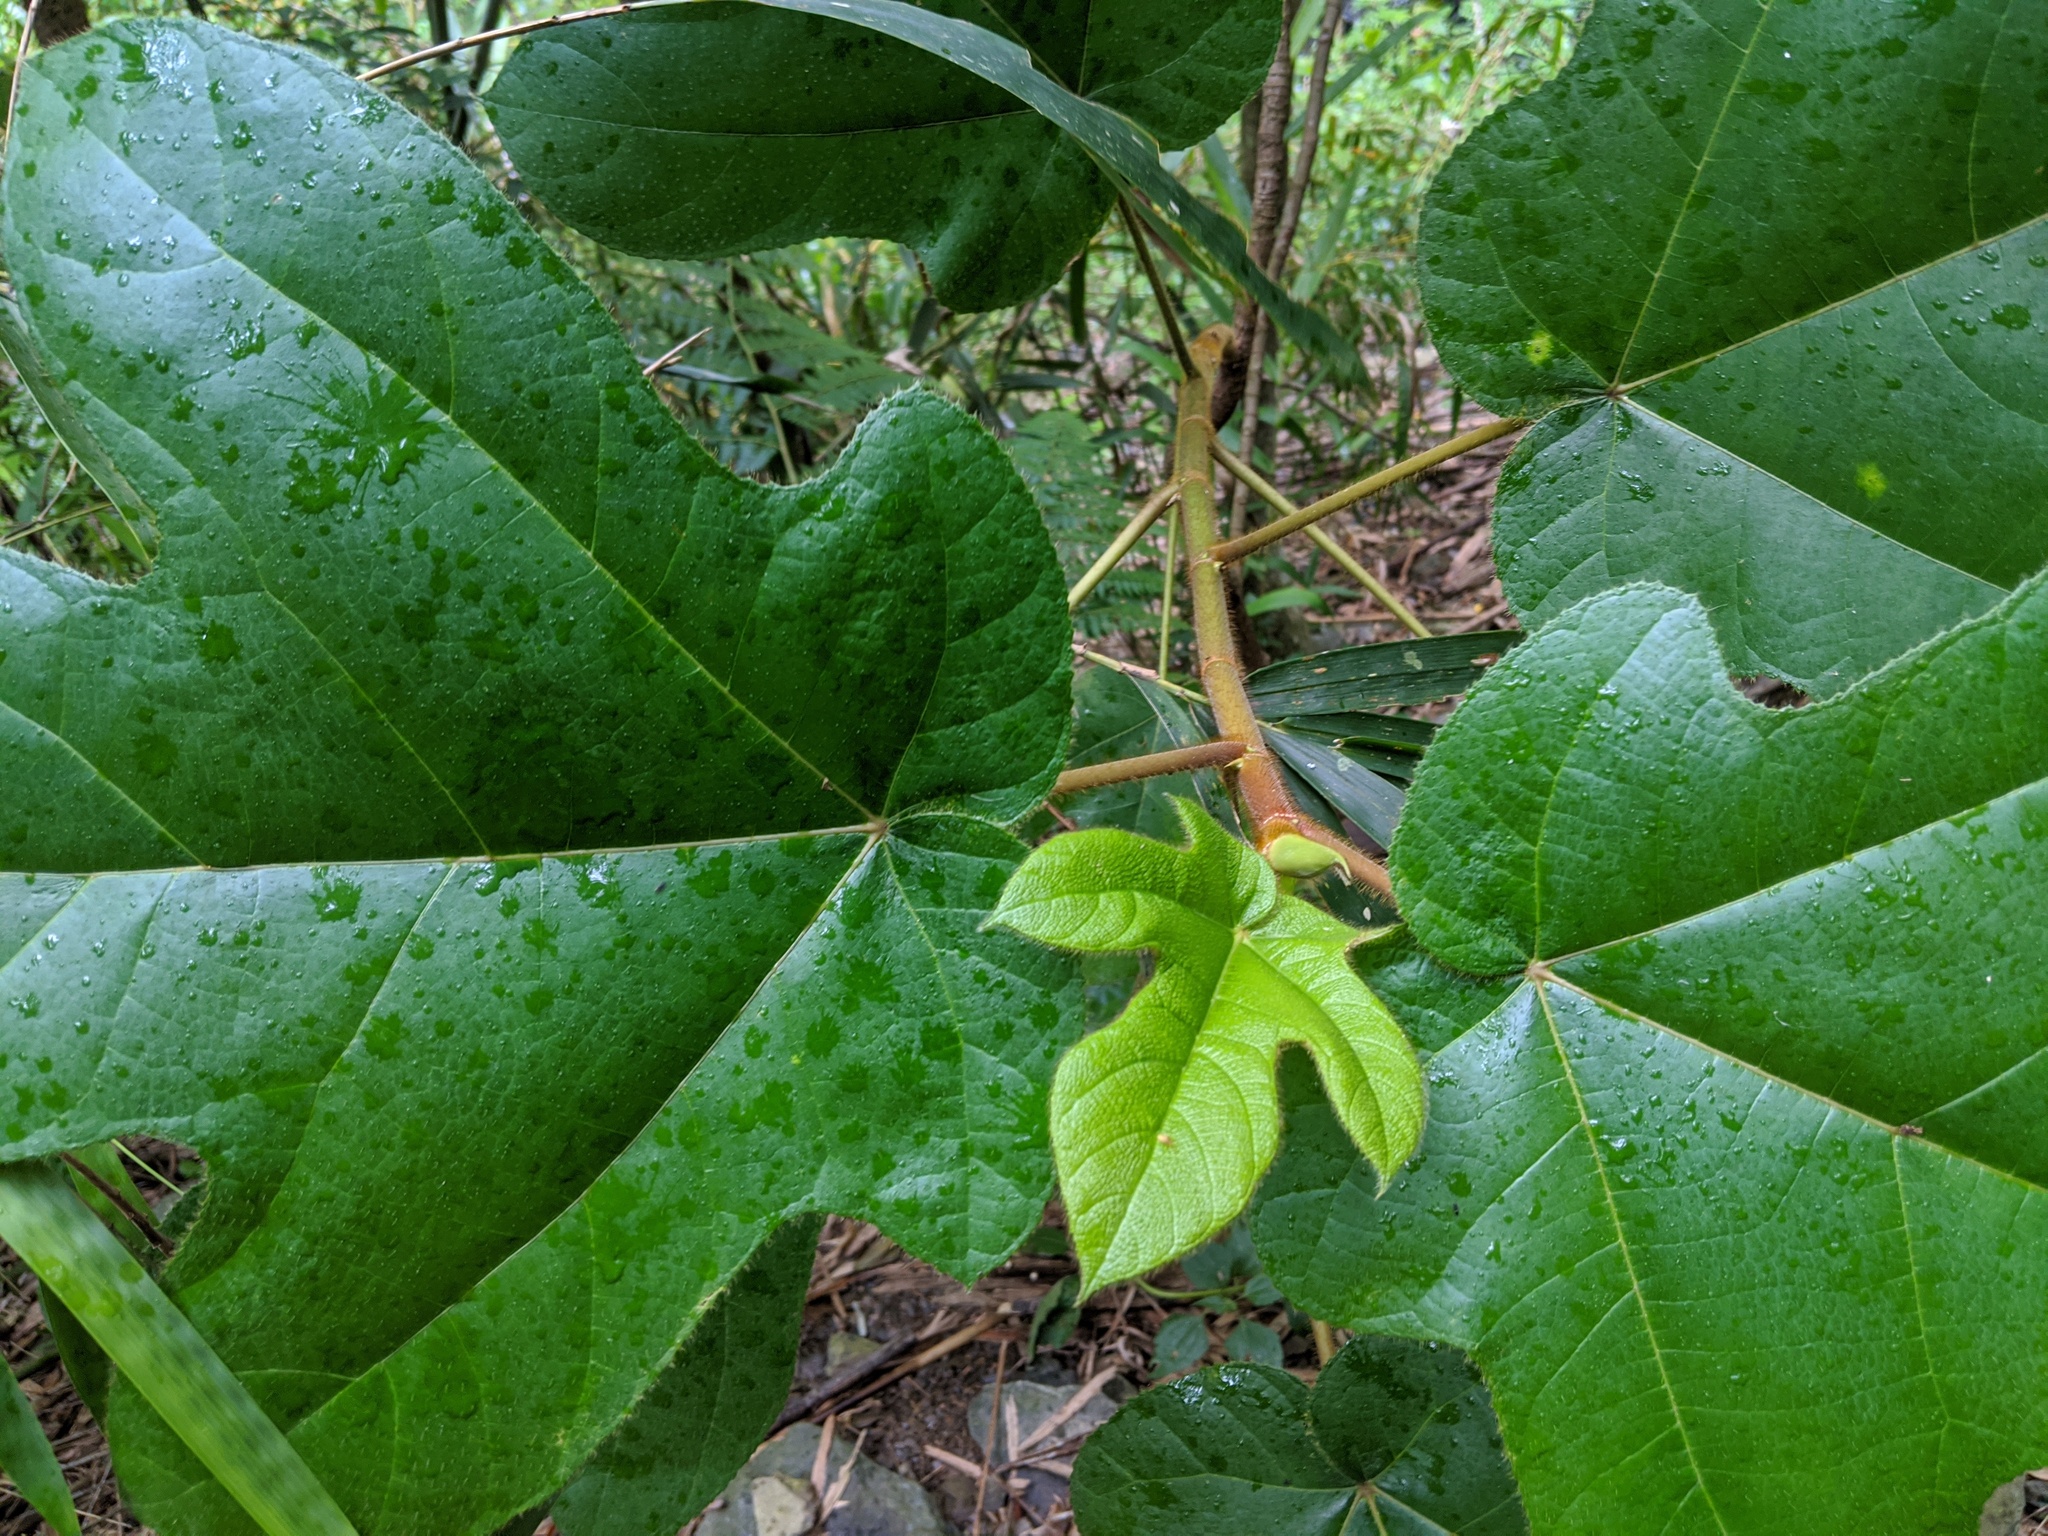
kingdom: Plantae
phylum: Tracheophyta
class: Magnoliopsida
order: Rosales
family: Moraceae
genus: Ficus
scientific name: Ficus triloba
